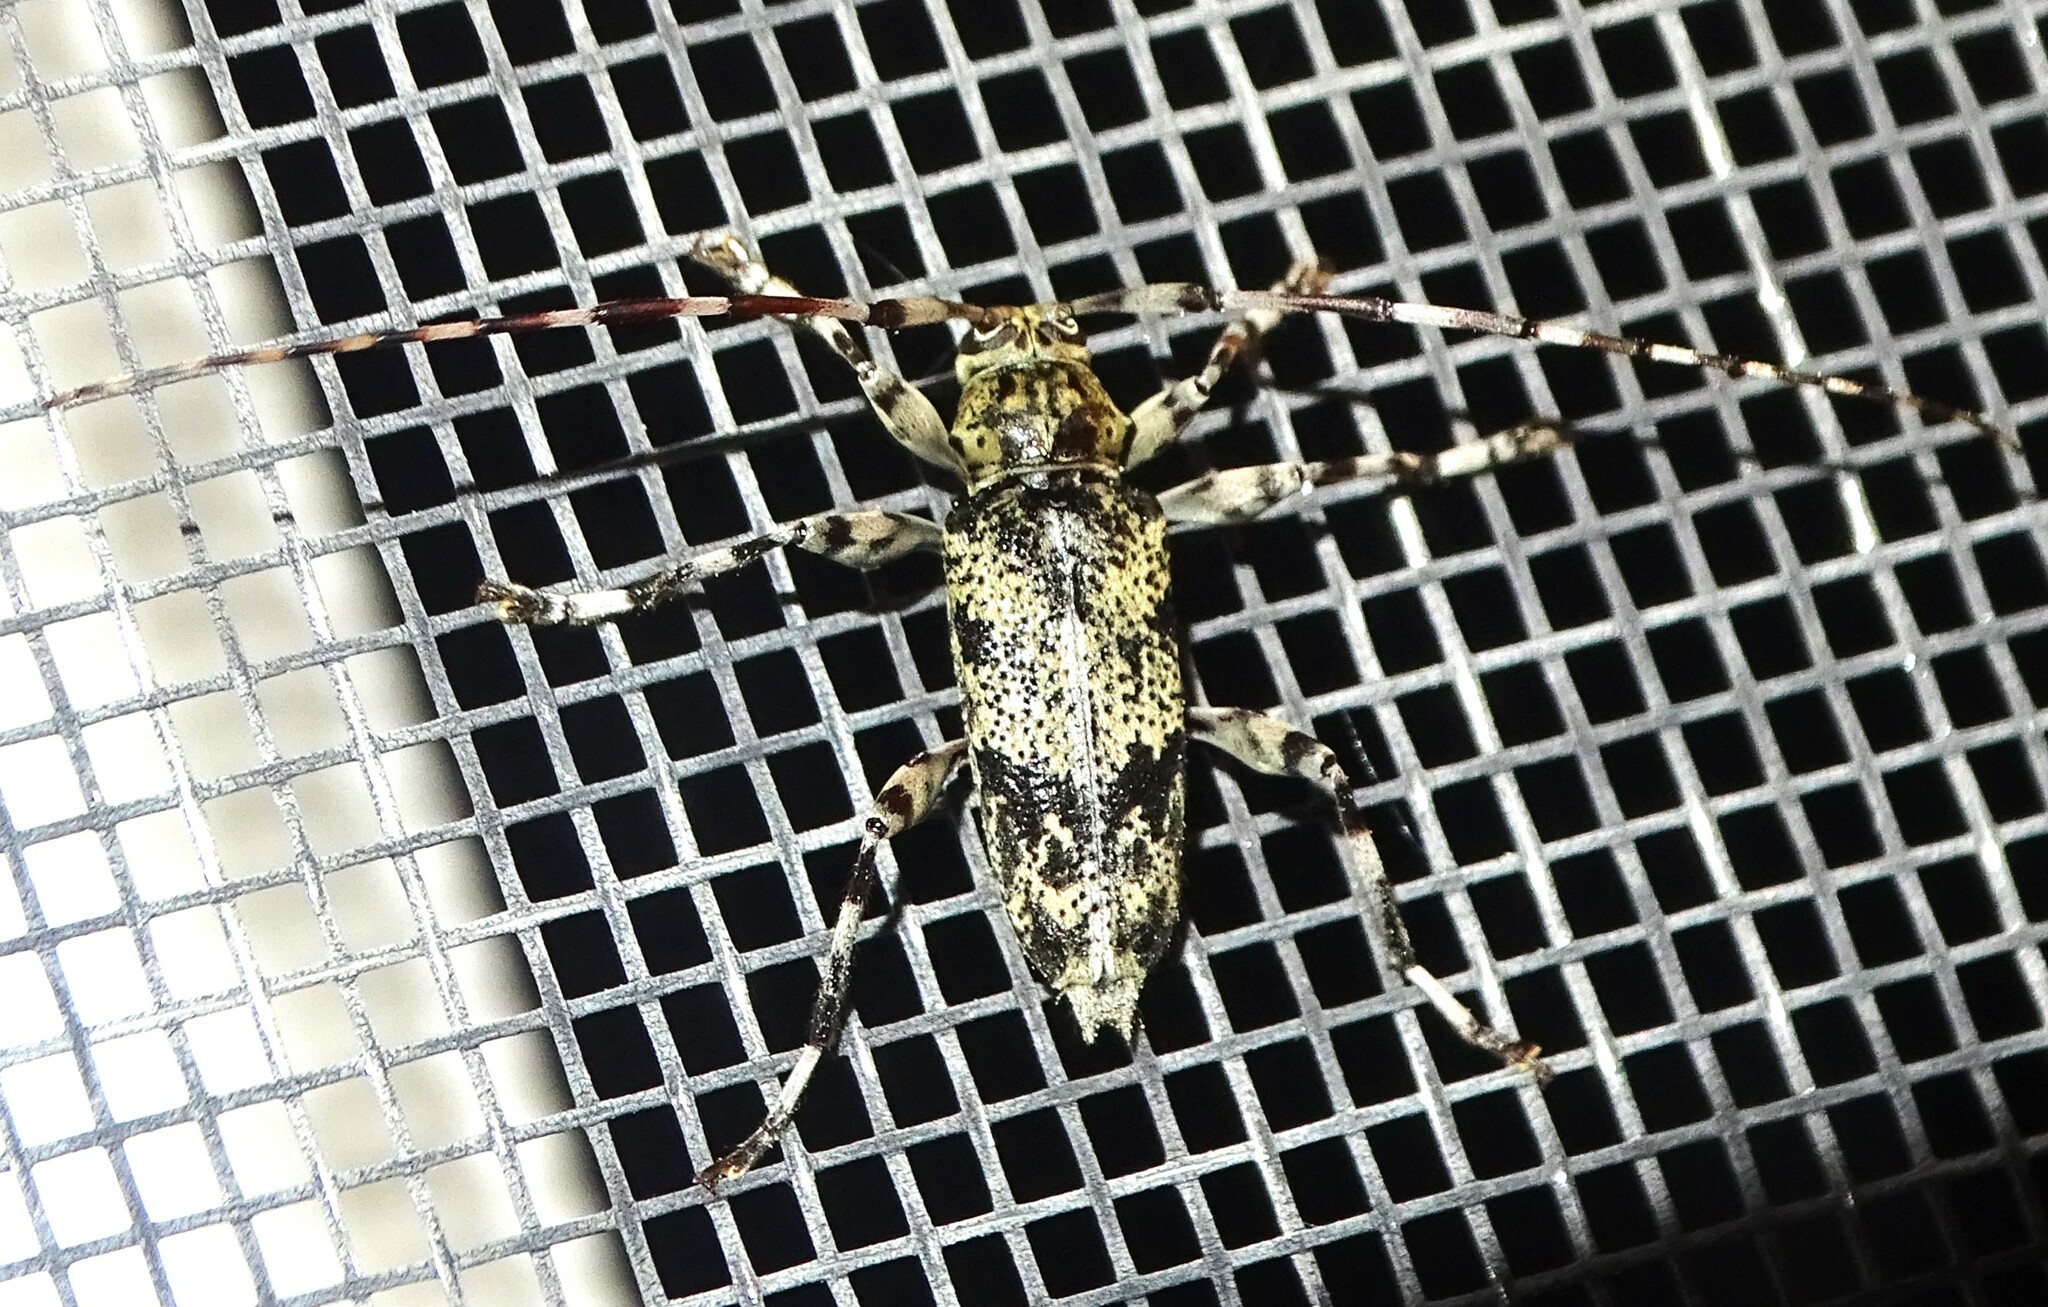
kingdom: Animalia
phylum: Arthropoda
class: Insecta
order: Coleoptera
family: Cerambycidae
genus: Graphisurus
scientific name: Graphisurus fasciatus
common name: Banded graphisurus
